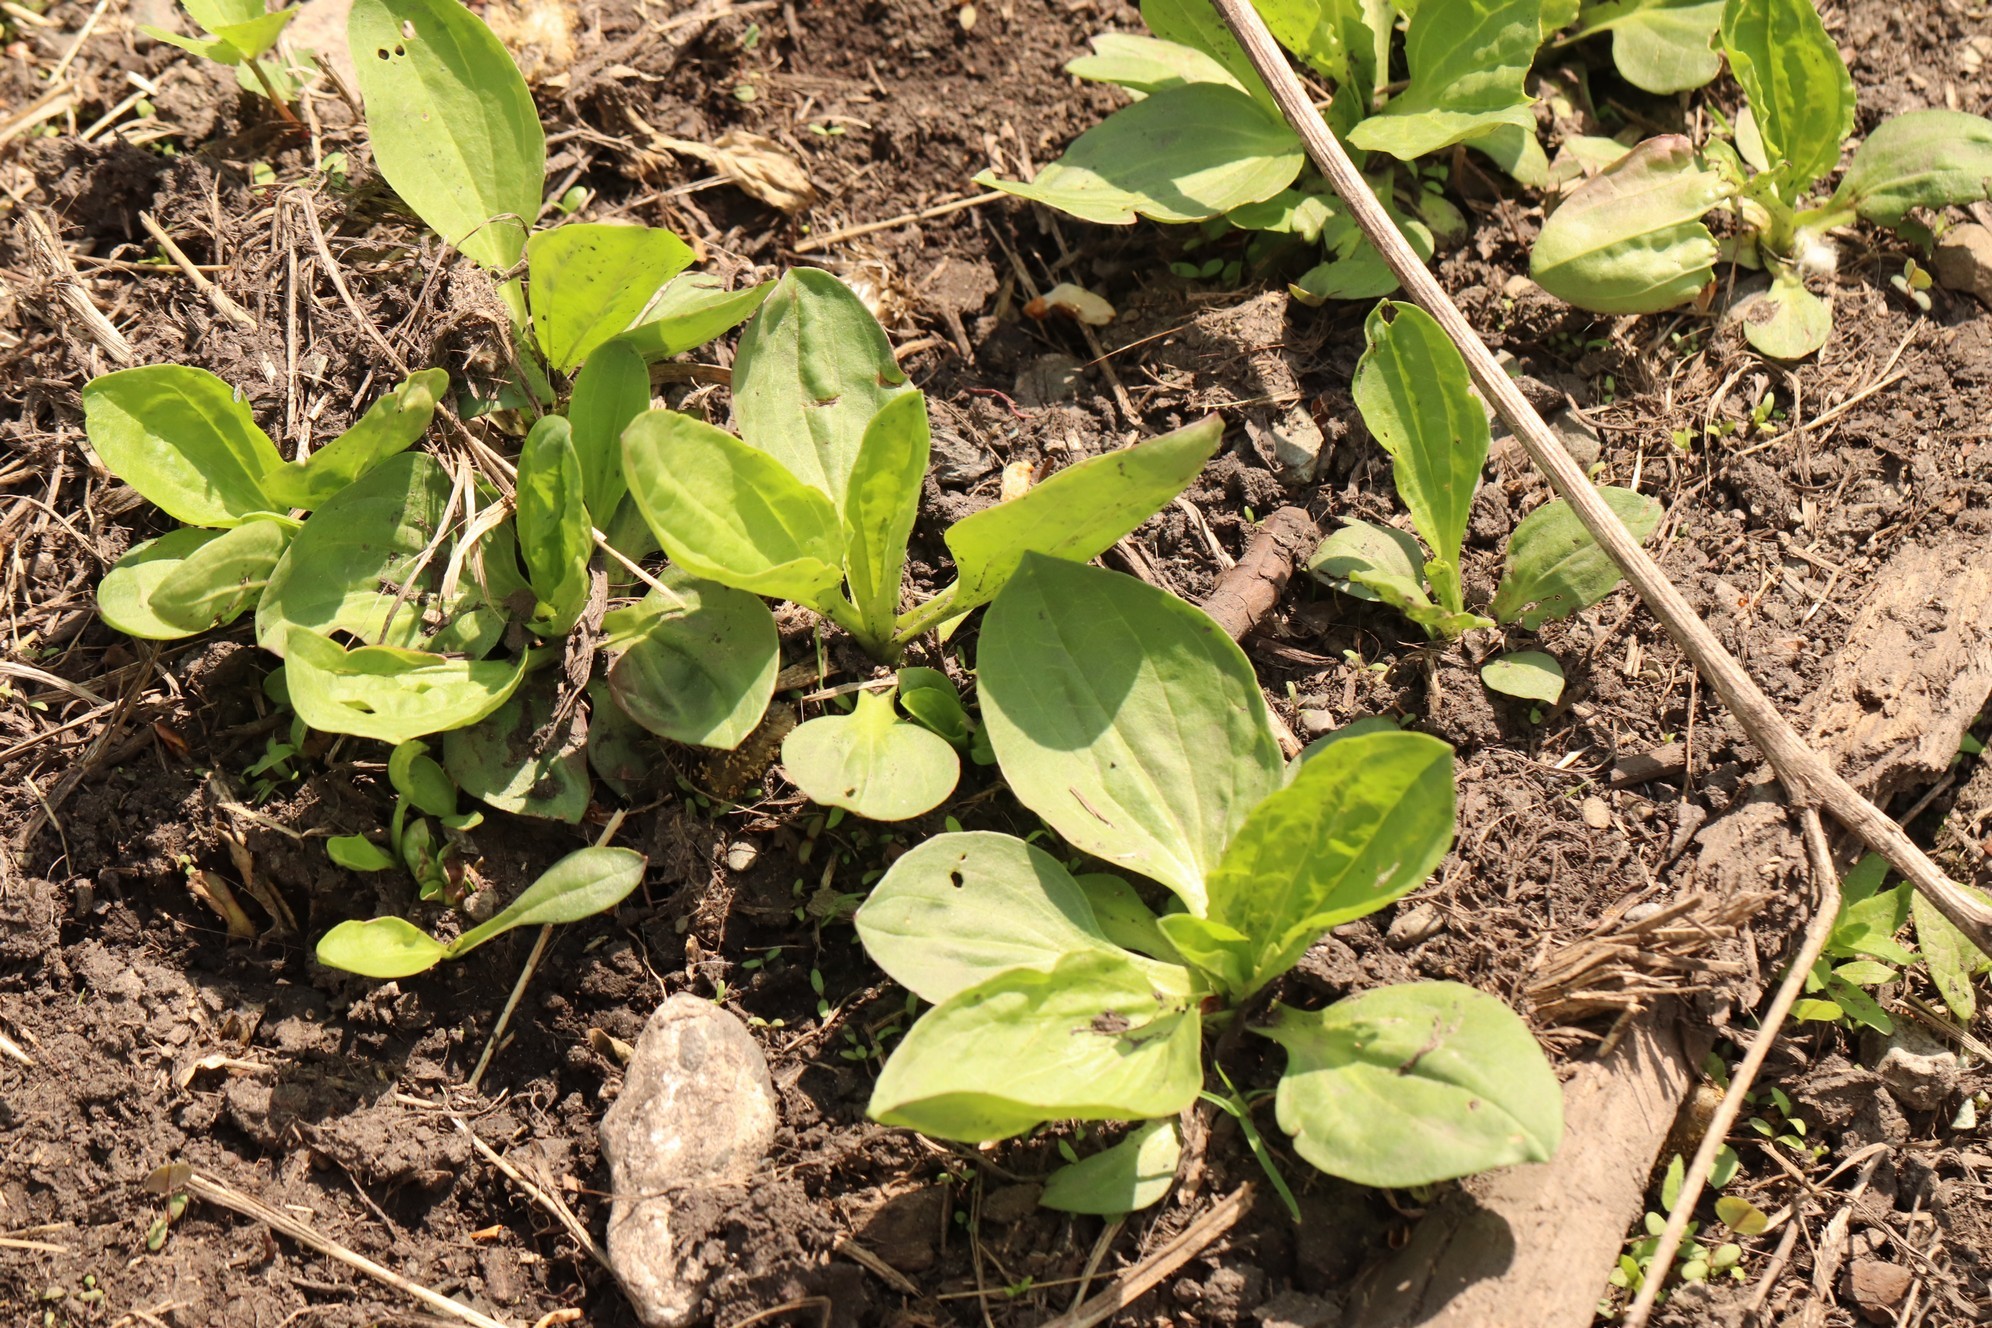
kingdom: Plantae
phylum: Tracheophyta
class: Magnoliopsida
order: Lamiales
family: Plantaginaceae
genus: Plantago
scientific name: Plantago major
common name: Common plantain
